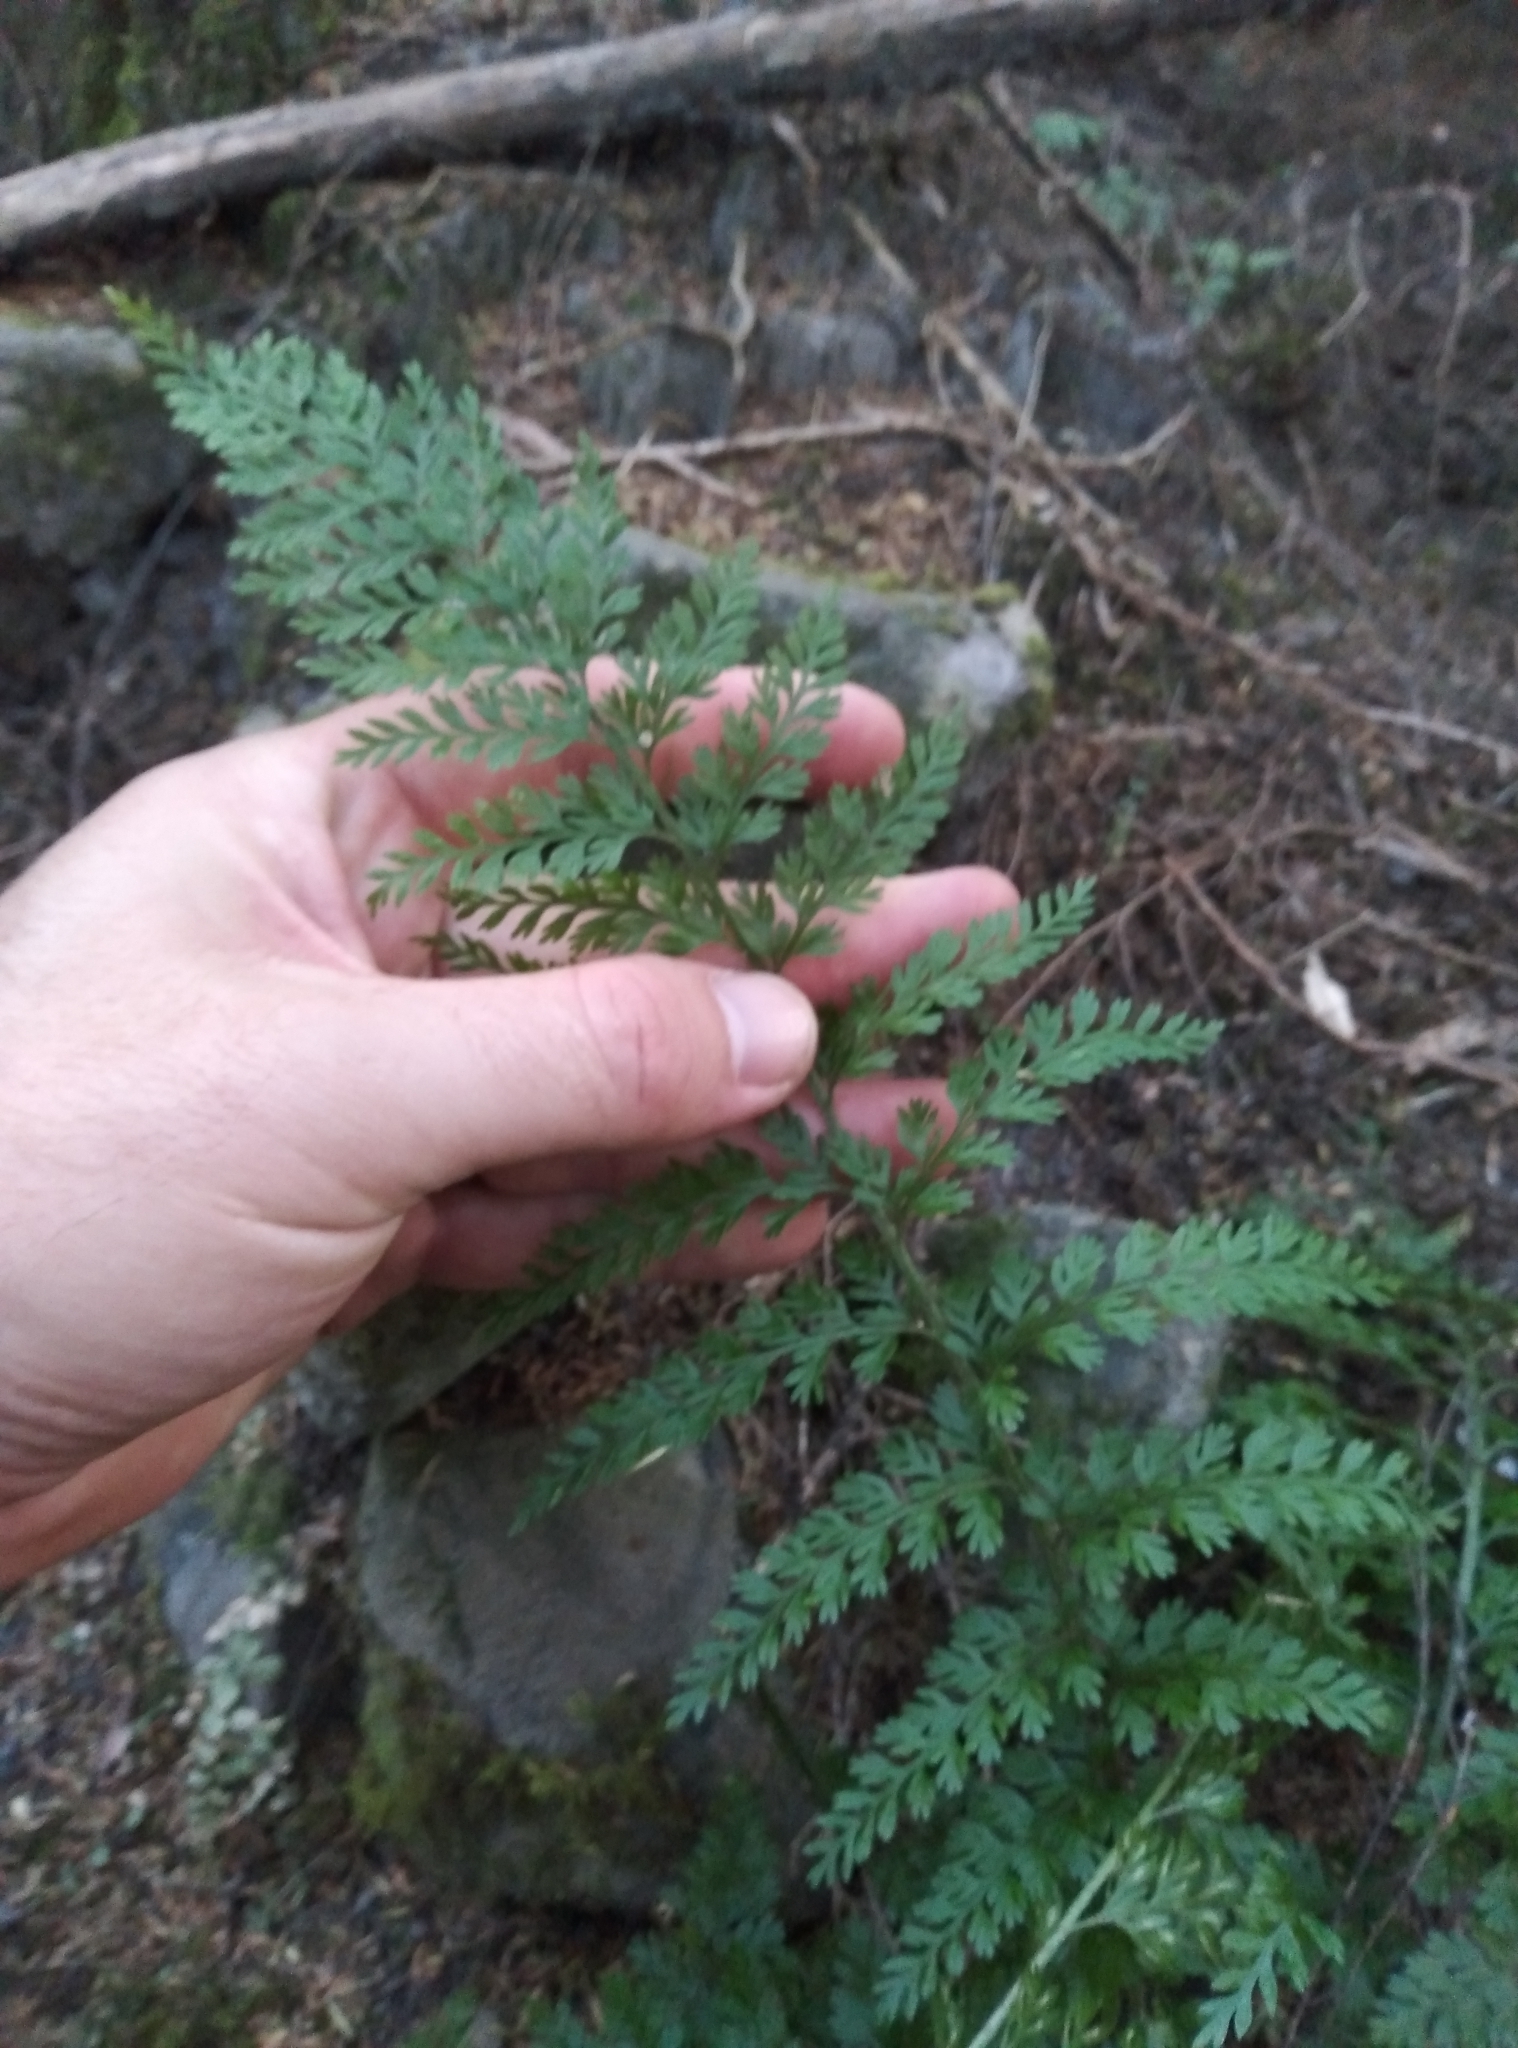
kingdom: Plantae
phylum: Tracheophyta
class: Polypodiopsida
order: Polypodiales
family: Aspleniaceae
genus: Asplenium
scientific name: Asplenium
